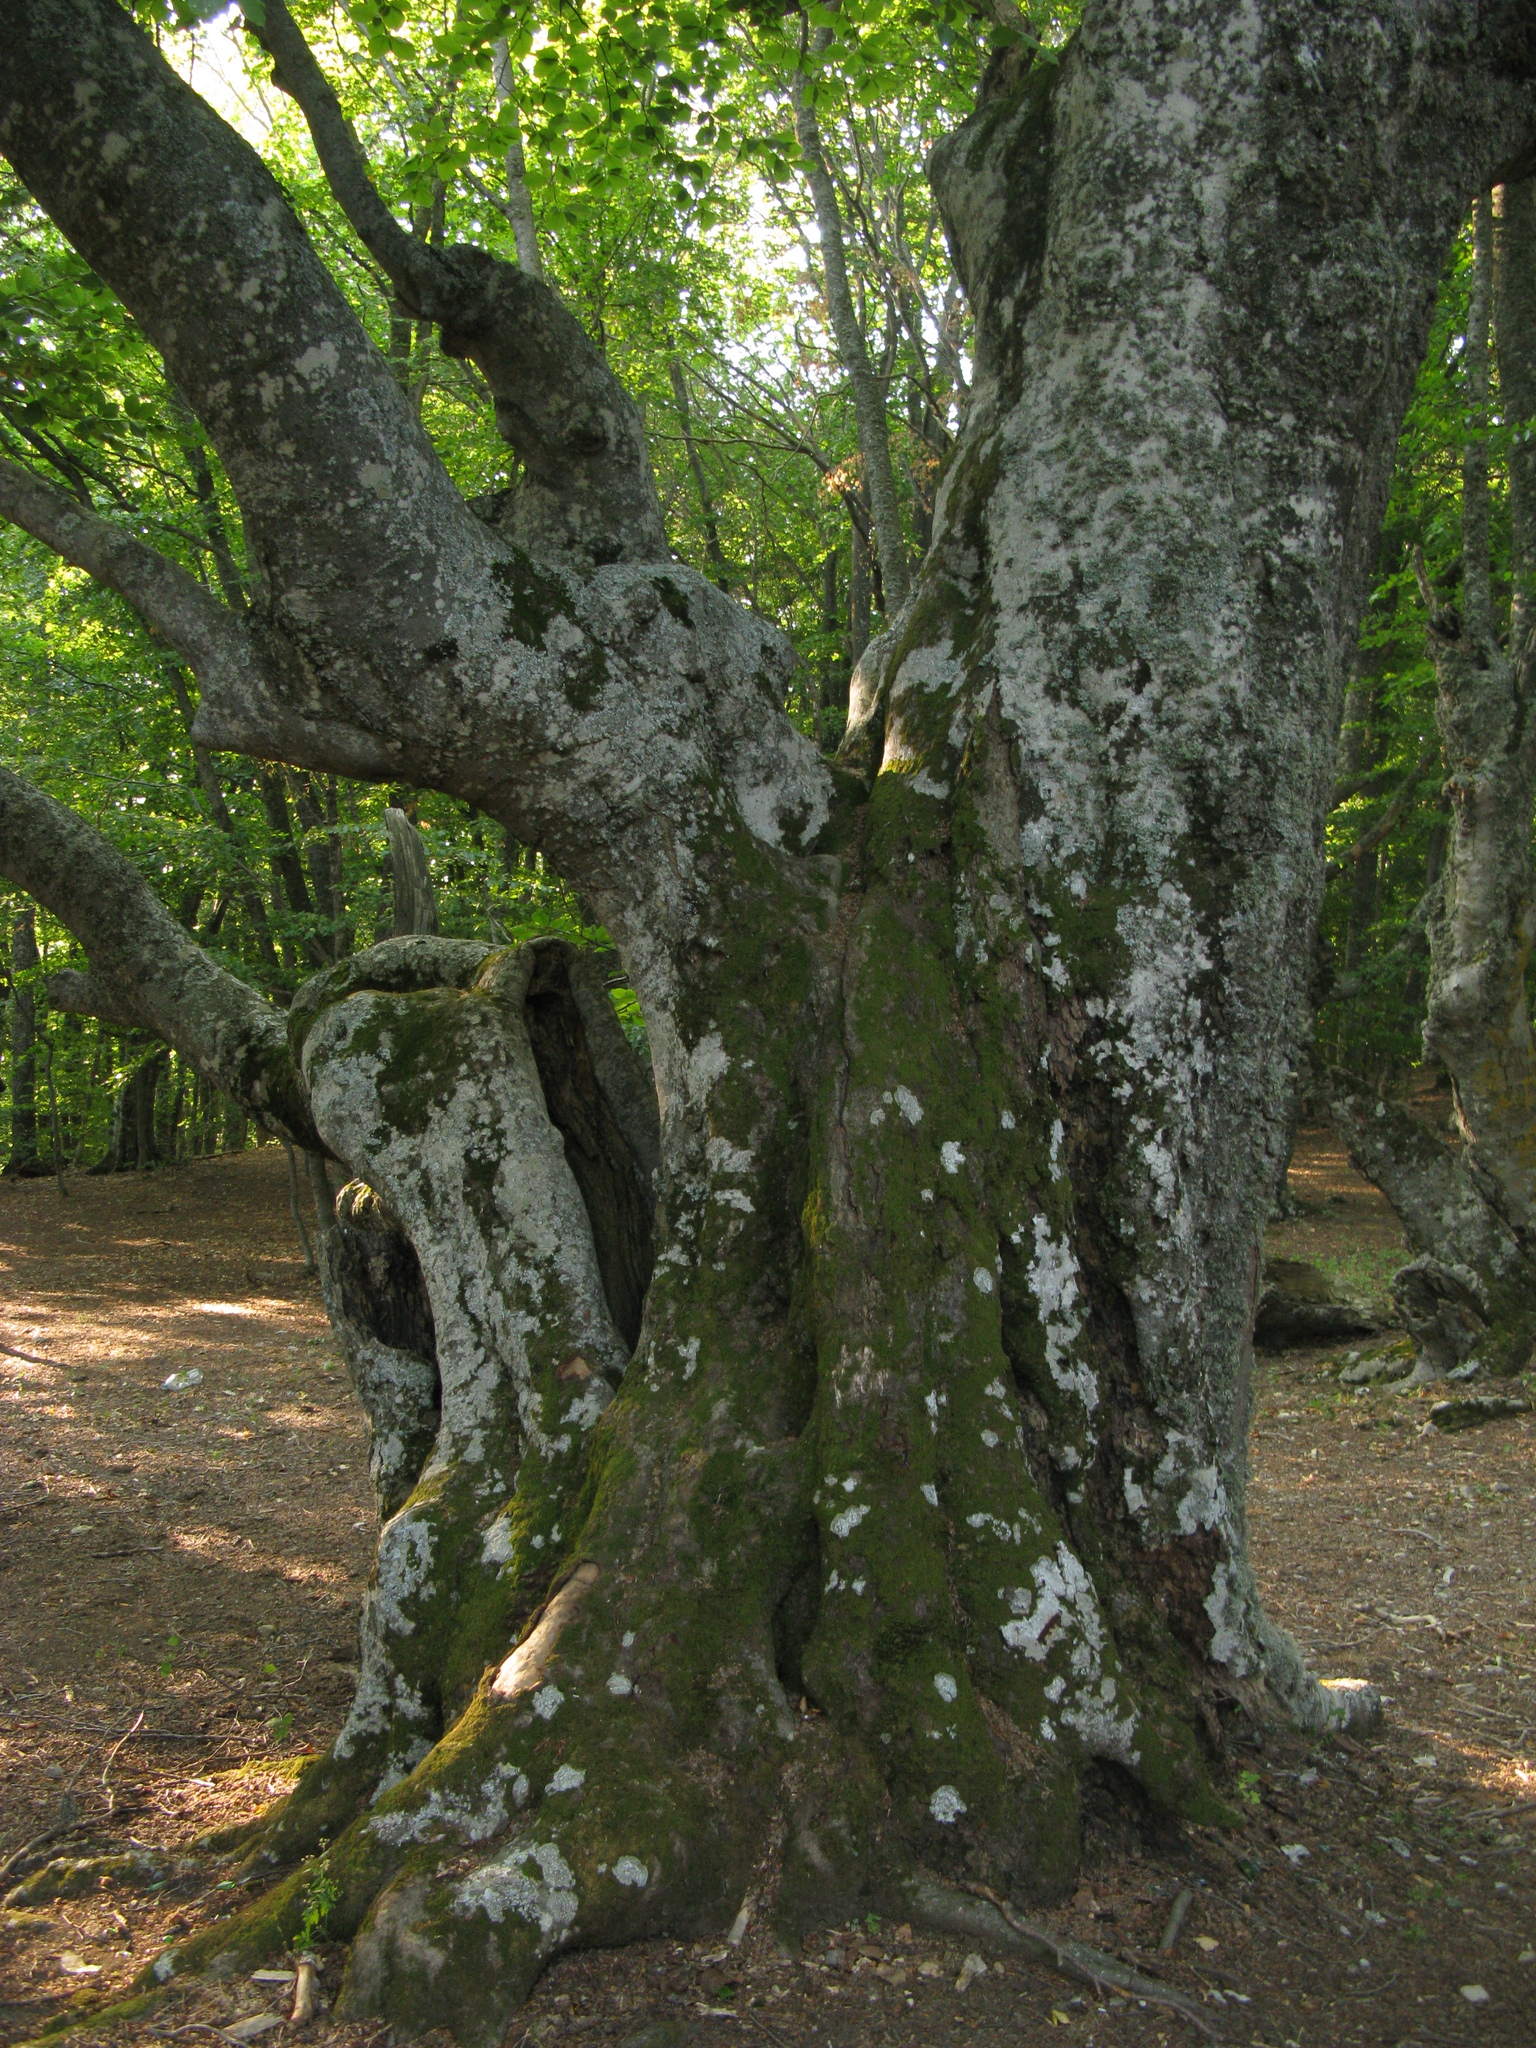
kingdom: Plantae
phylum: Tracheophyta
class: Magnoliopsida
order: Fagales
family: Fagaceae
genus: Fagus
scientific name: Fagus taurica
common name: Crimean beech
